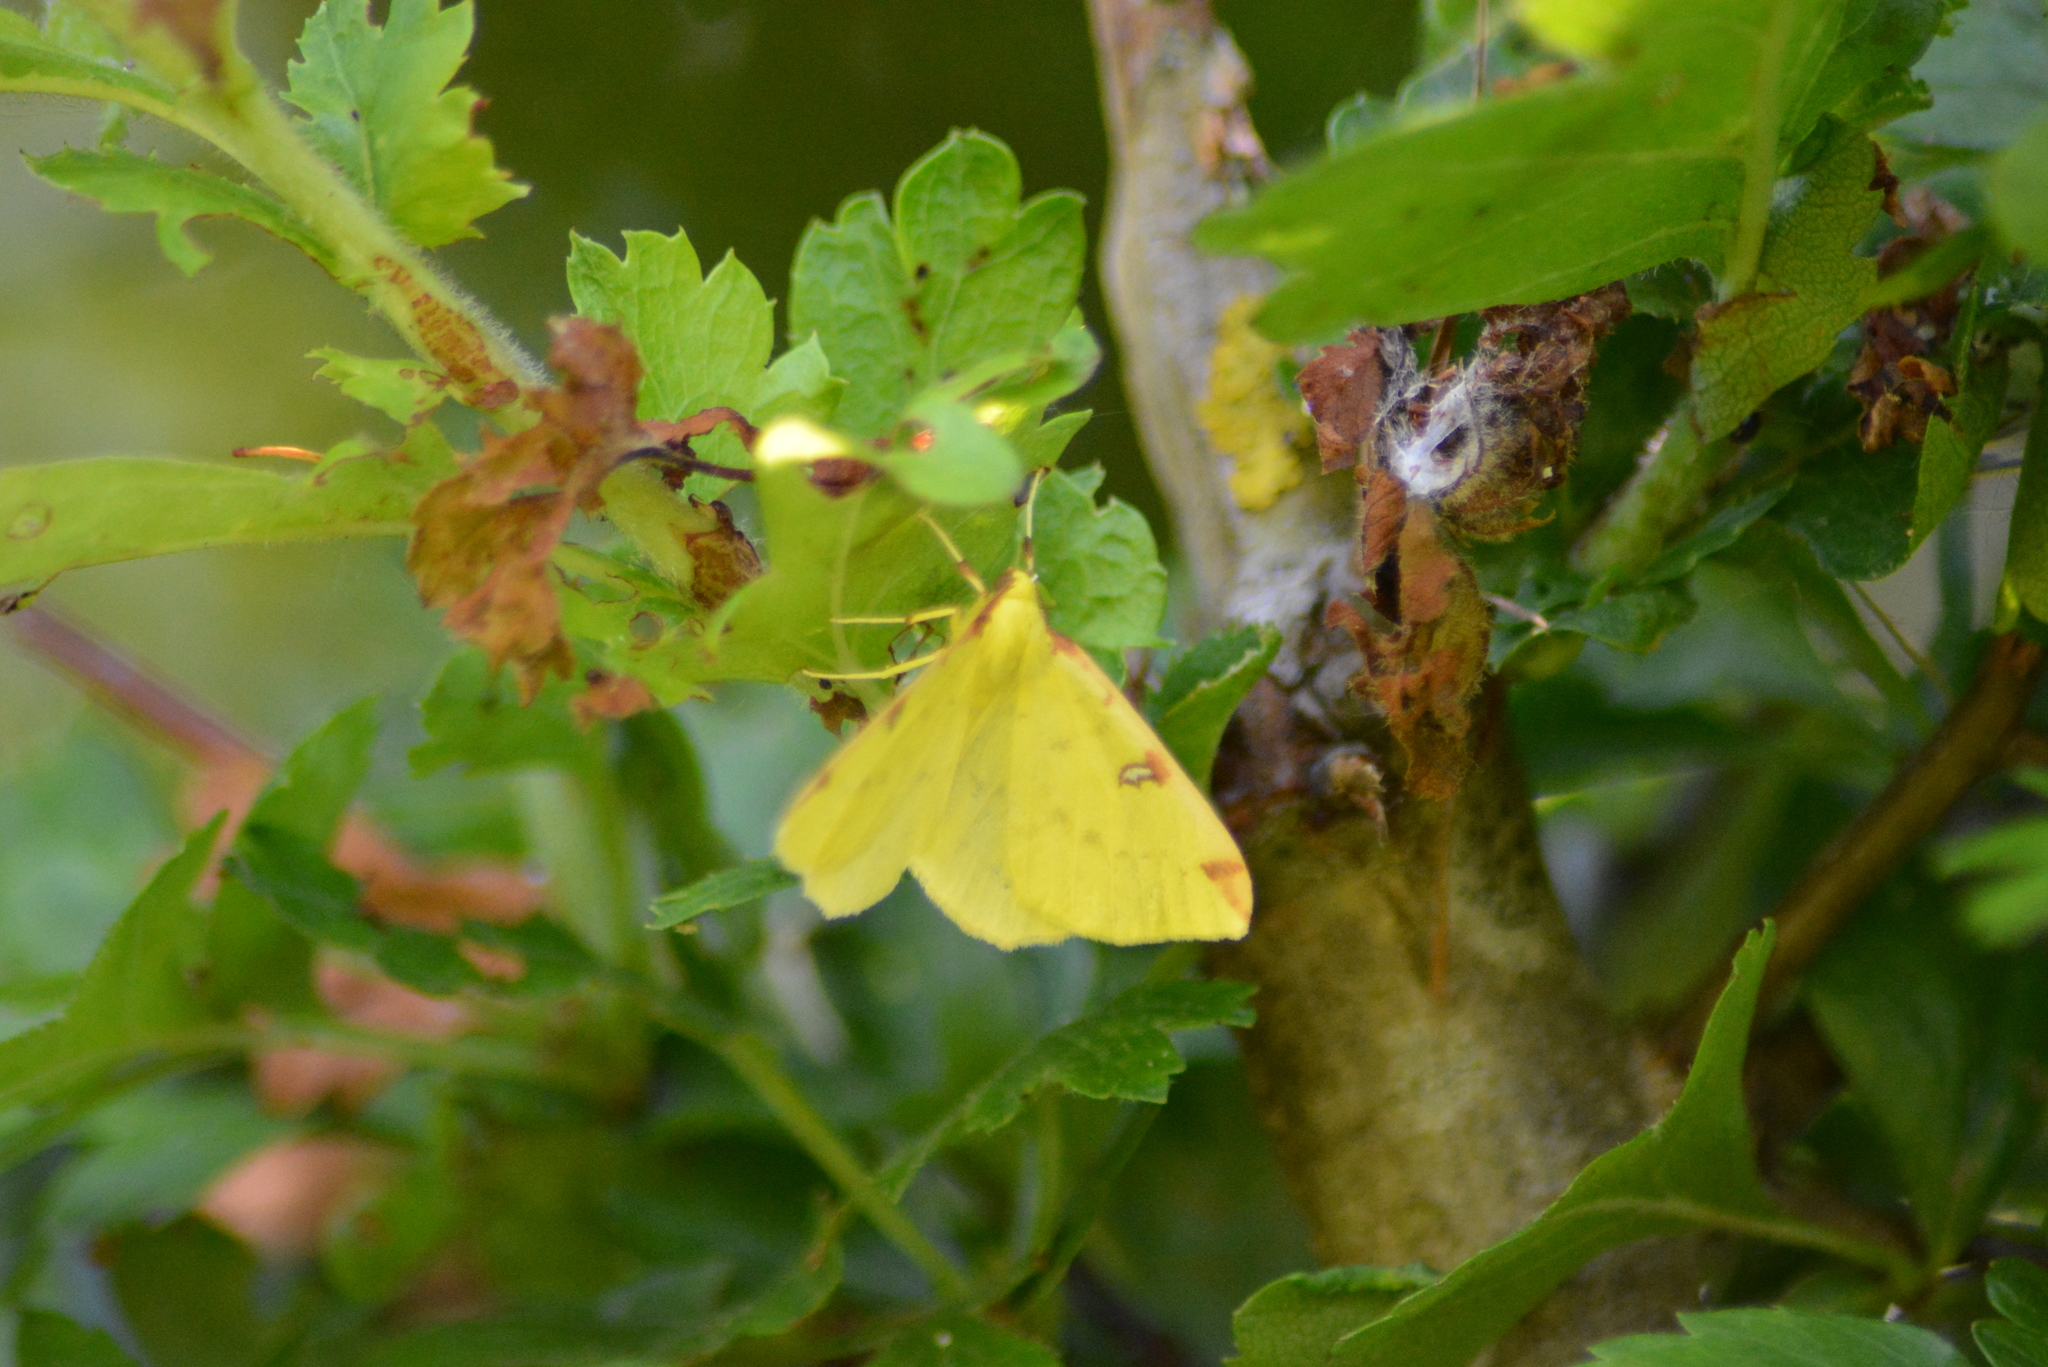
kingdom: Animalia
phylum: Arthropoda
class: Insecta
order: Lepidoptera
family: Geometridae
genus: Opisthograptis
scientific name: Opisthograptis luteolata
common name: Brimstone moth
